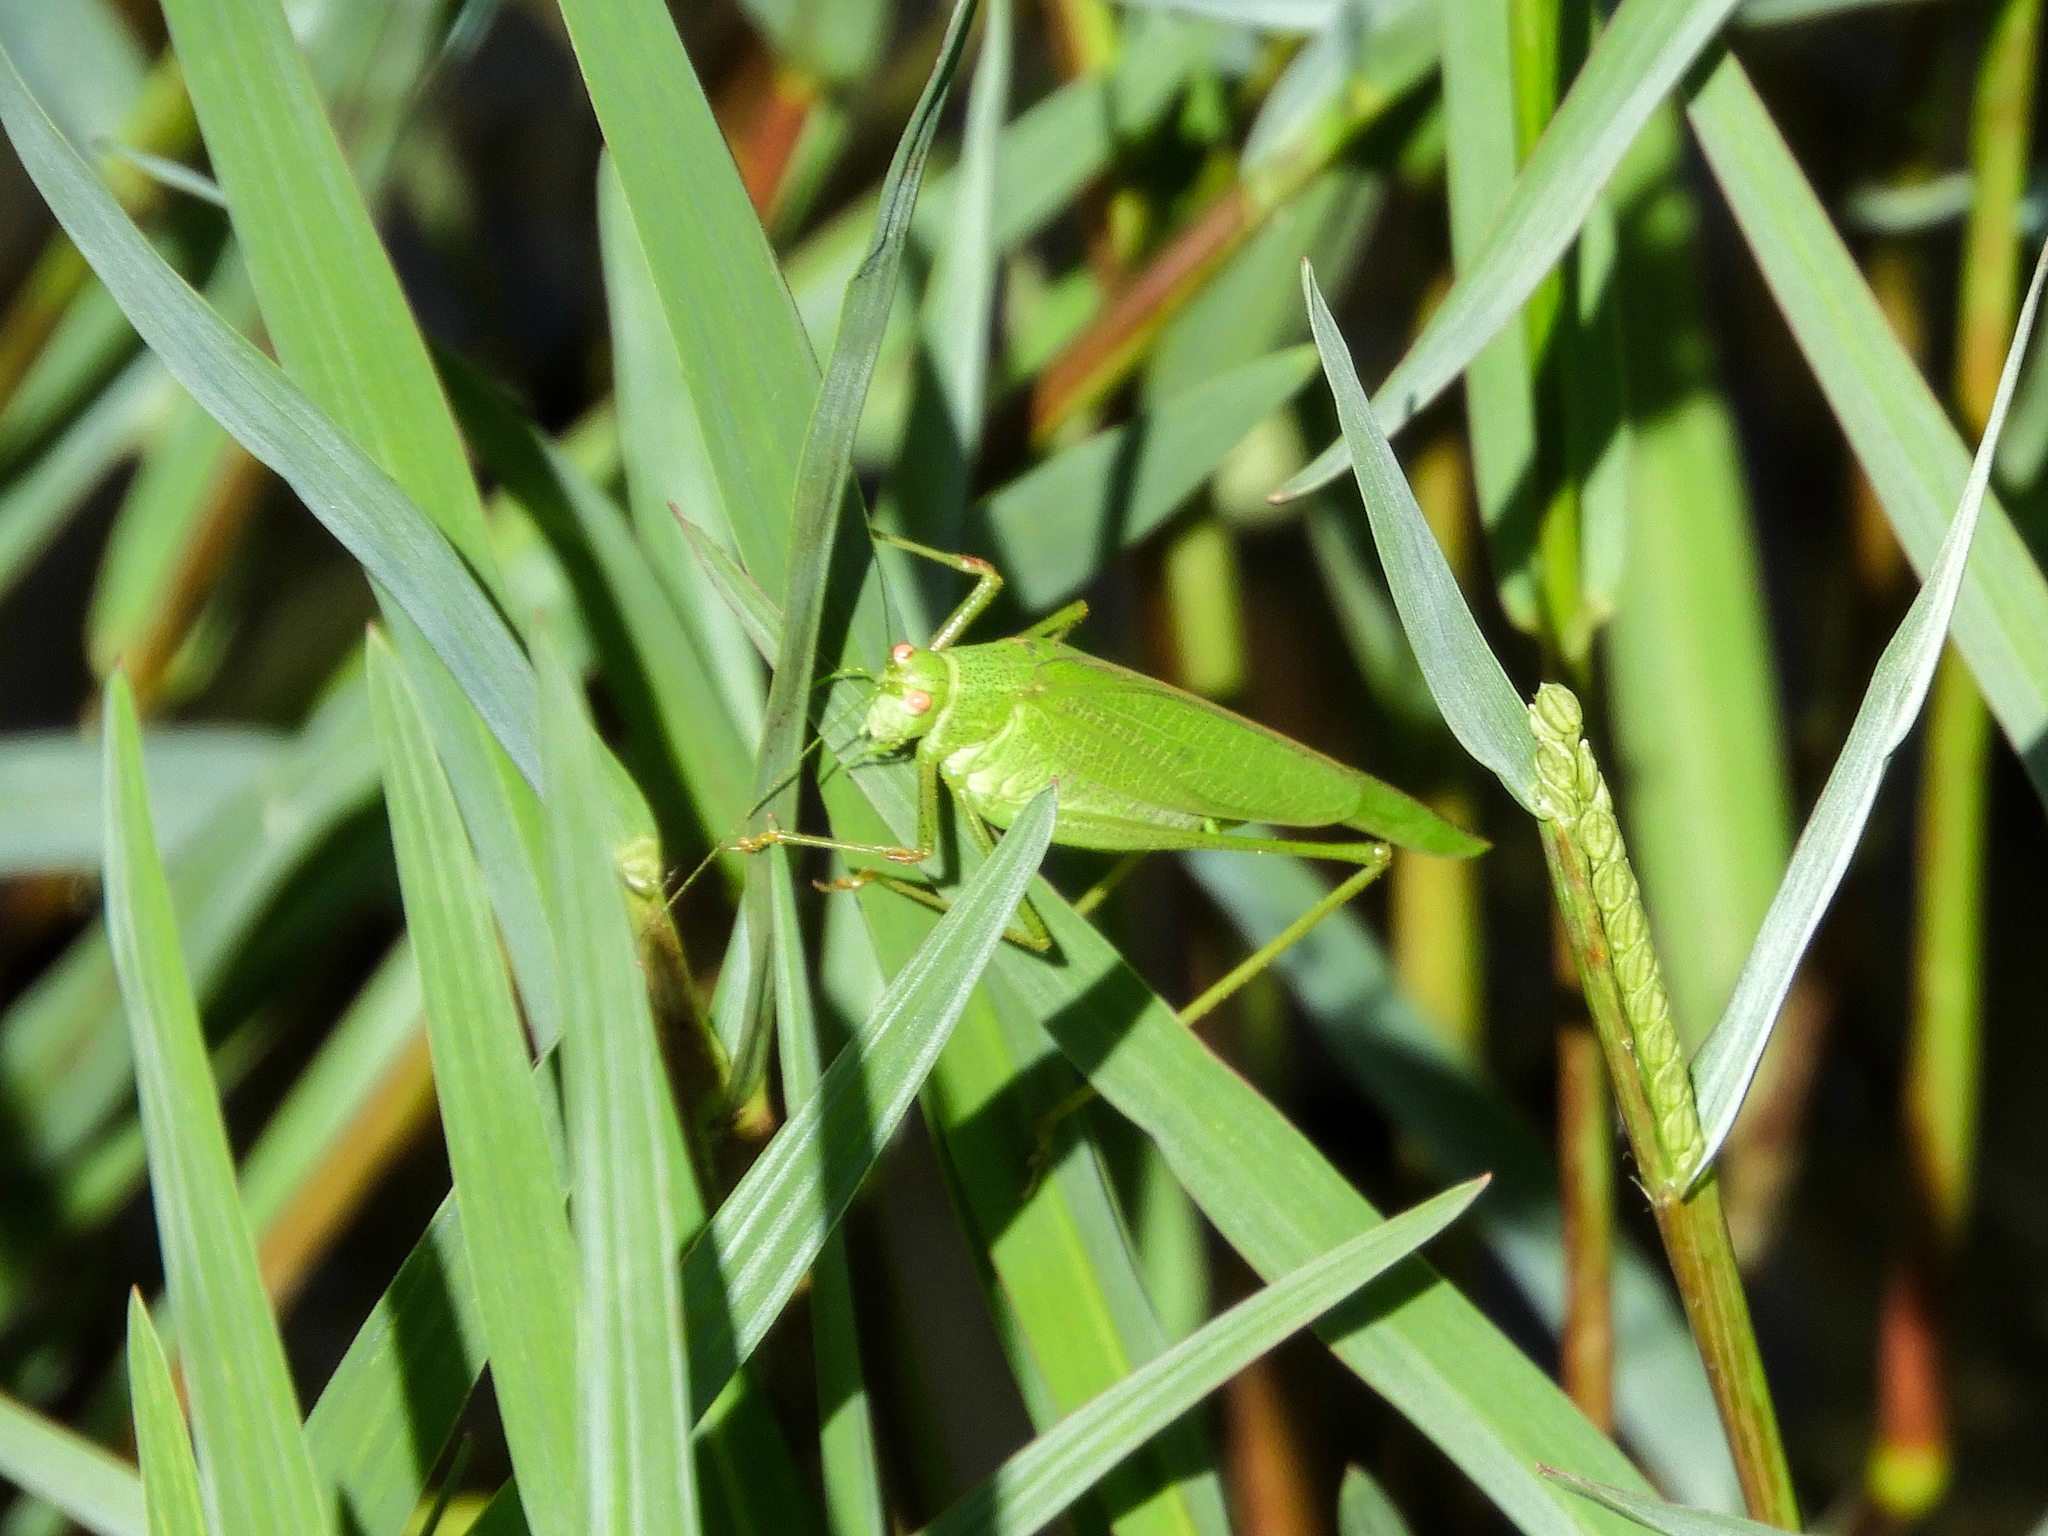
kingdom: Animalia
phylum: Arthropoda
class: Insecta
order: Orthoptera
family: Tettigoniidae
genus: Phaneroptera
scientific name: Phaneroptera nana
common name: Southern sickle bush-cricket
